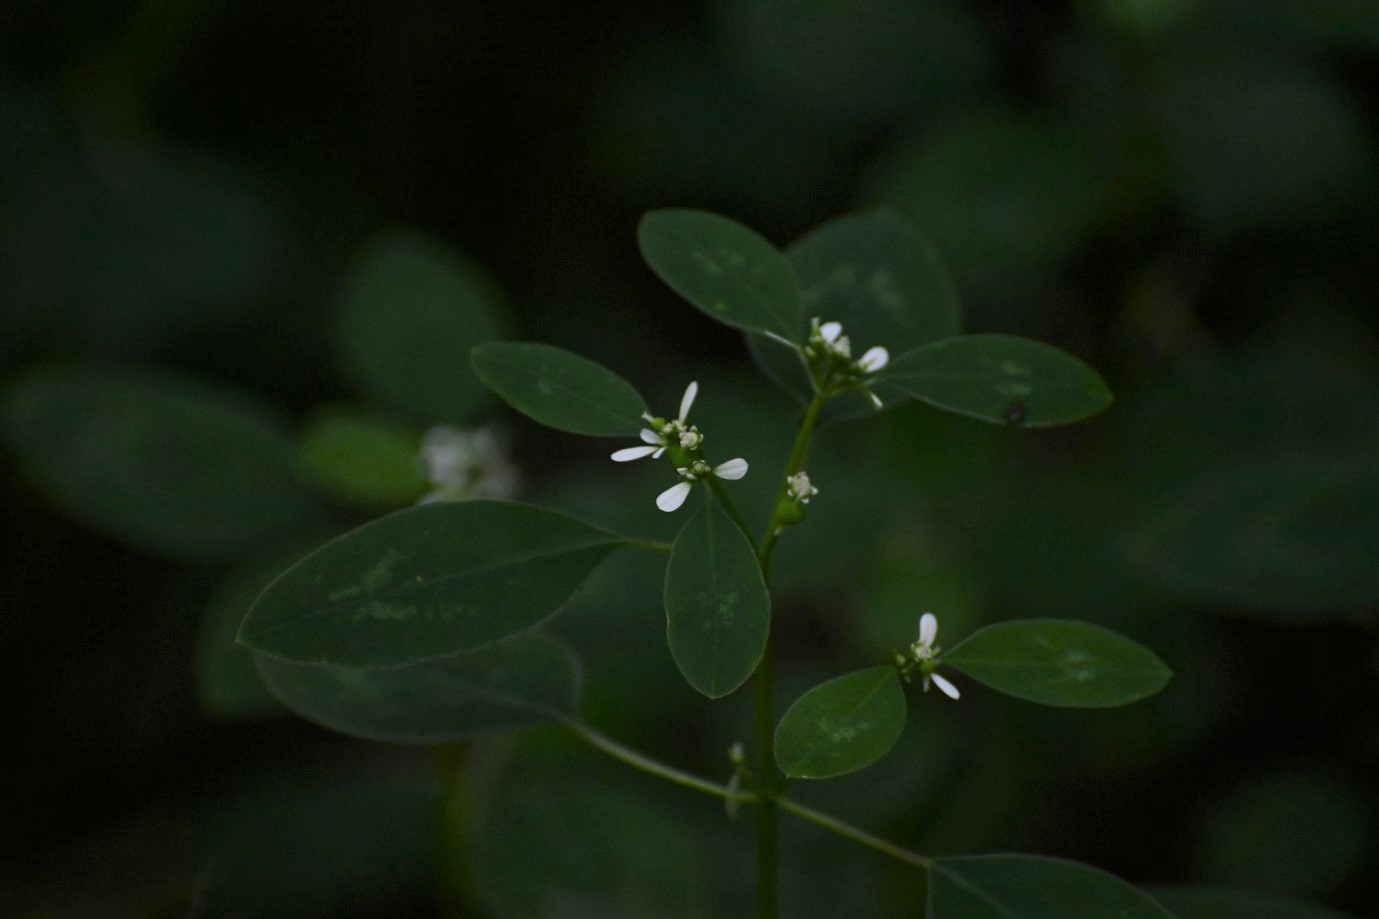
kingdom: Plantae
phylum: Tracheophyta
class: Magnoliopsida
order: Malpighiales
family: Euphorbiaceae
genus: Euphorbia
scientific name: Euphorbia graminea
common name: Grassleaf spurge
